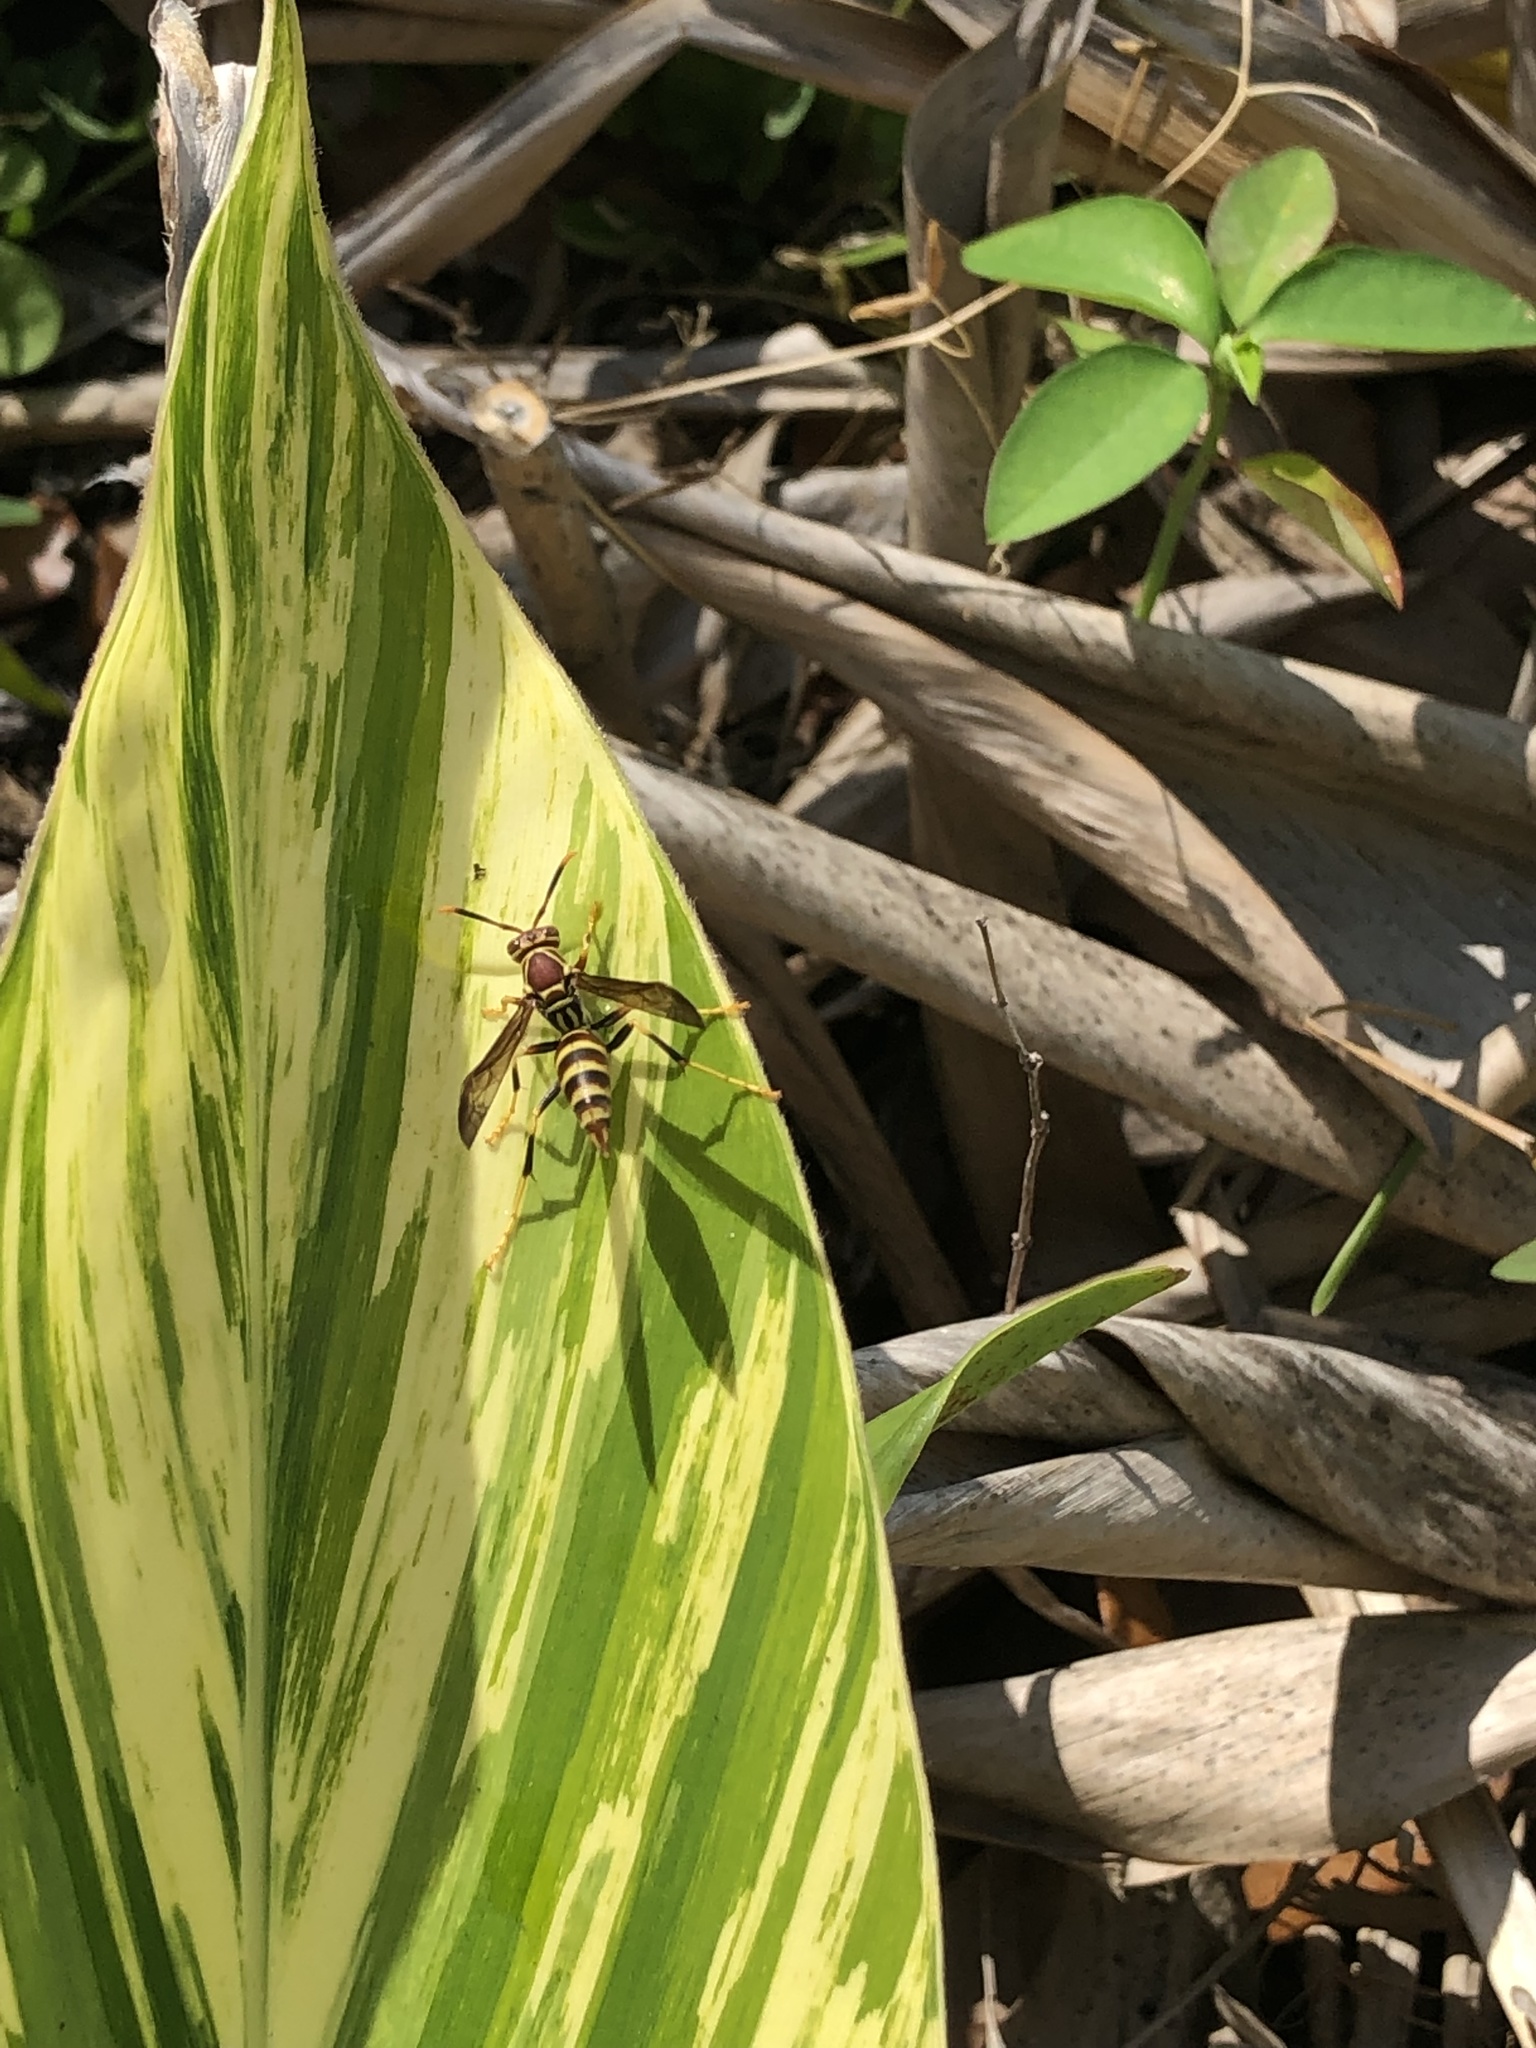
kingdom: Animalia
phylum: Arthropoda
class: Insecta
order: Hymenoptera
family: Eumenidae
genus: Polistes
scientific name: Polistes exclamans
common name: Paper wasp
